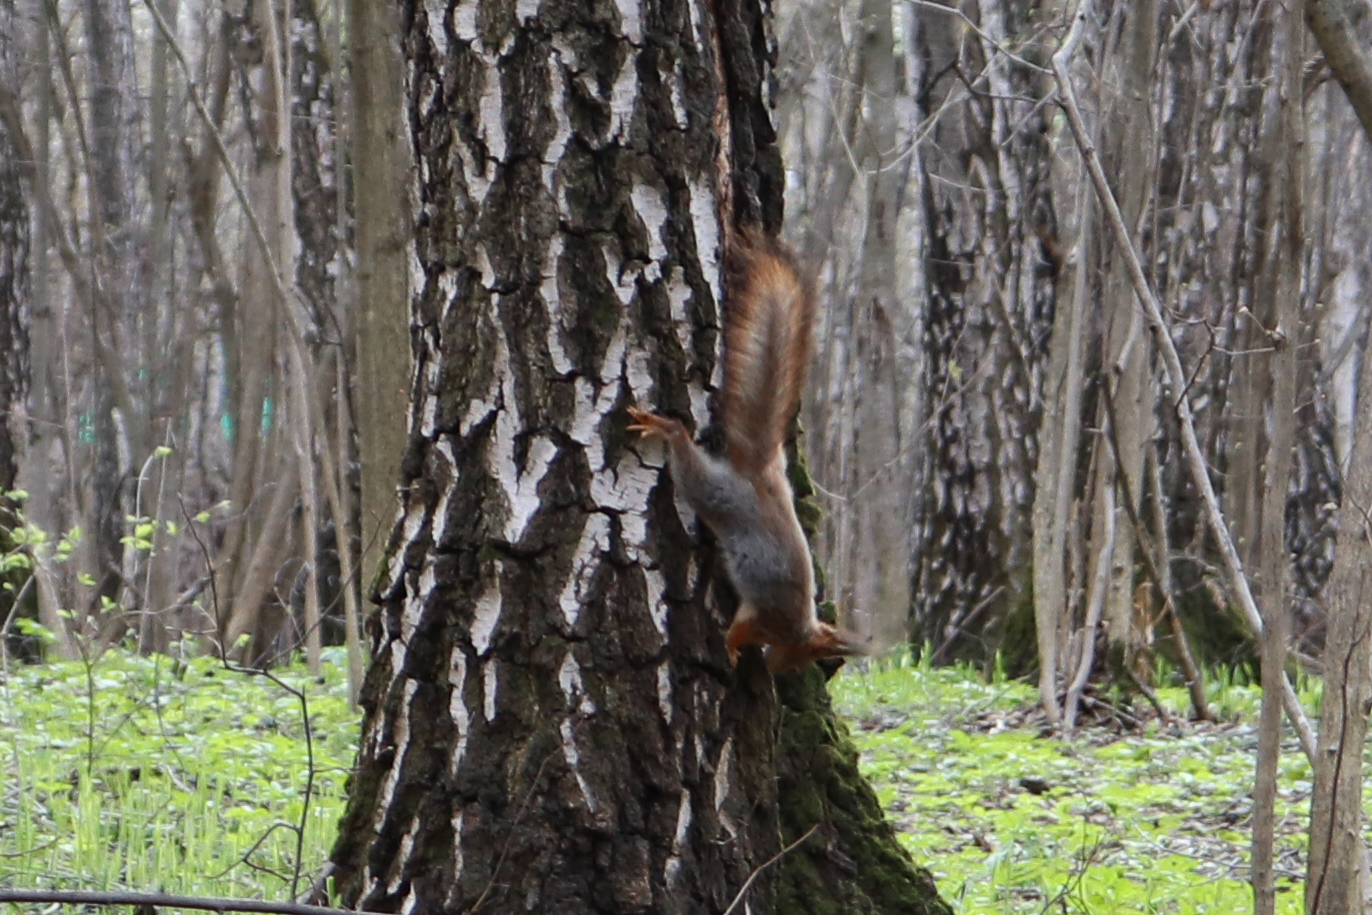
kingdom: Animalia
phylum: Chordata
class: Mammalia
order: Rodentia
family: Sciuridae
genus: Sciurus
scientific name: Sciurus vulgaris
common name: Eurasian red squirrel
